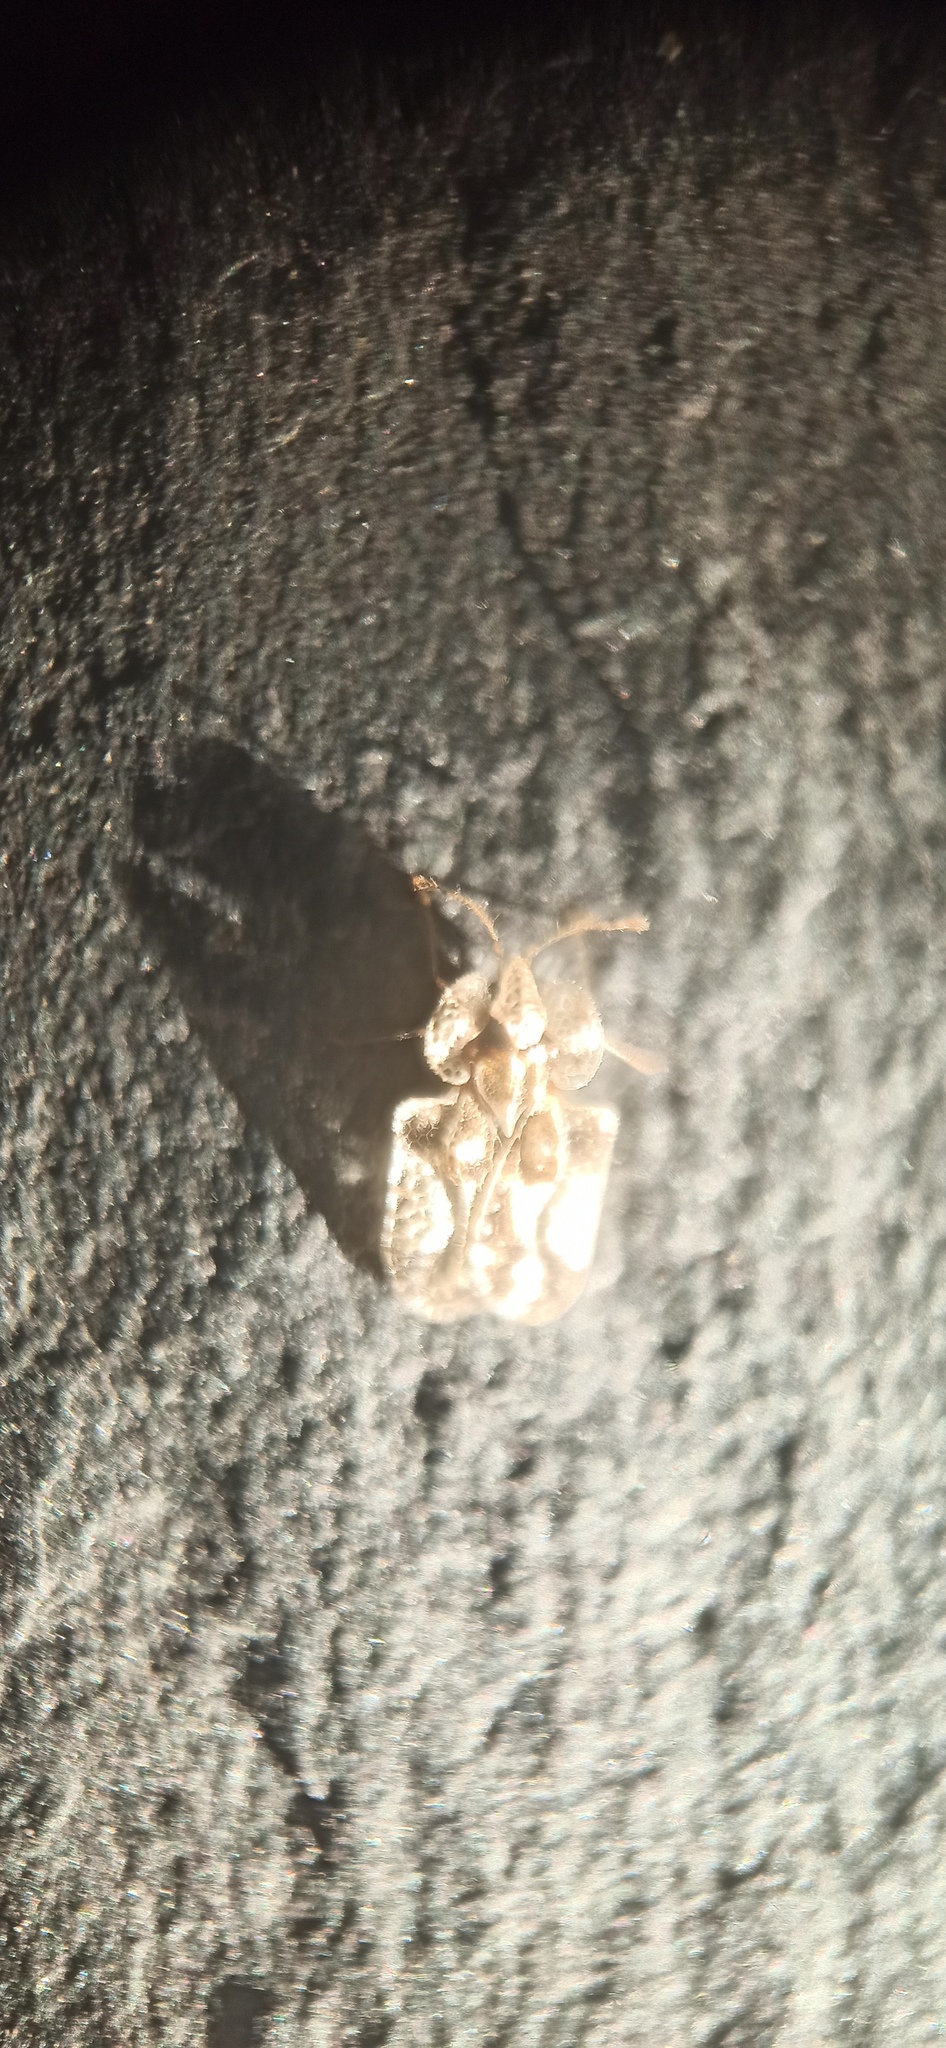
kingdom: Animalia
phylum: Arthropoda
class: Insecta
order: Hemiptera
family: Tingidae
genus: Corythucha
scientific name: Corythucha arcuata
